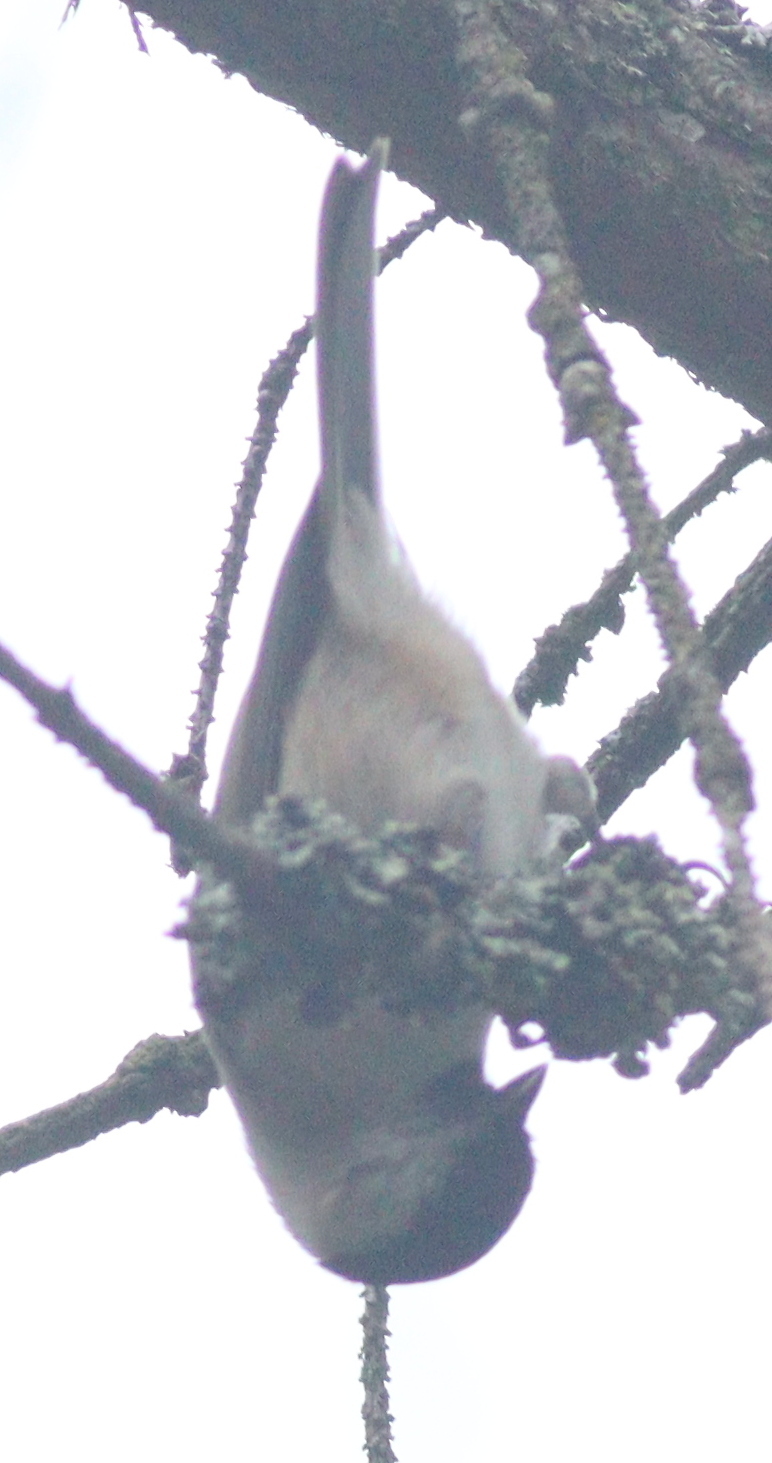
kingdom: Animalia
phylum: Chordata
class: Aves
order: Passeriformes
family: Paridae
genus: Poecile
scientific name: Poecile palustris
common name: Marsh tit
